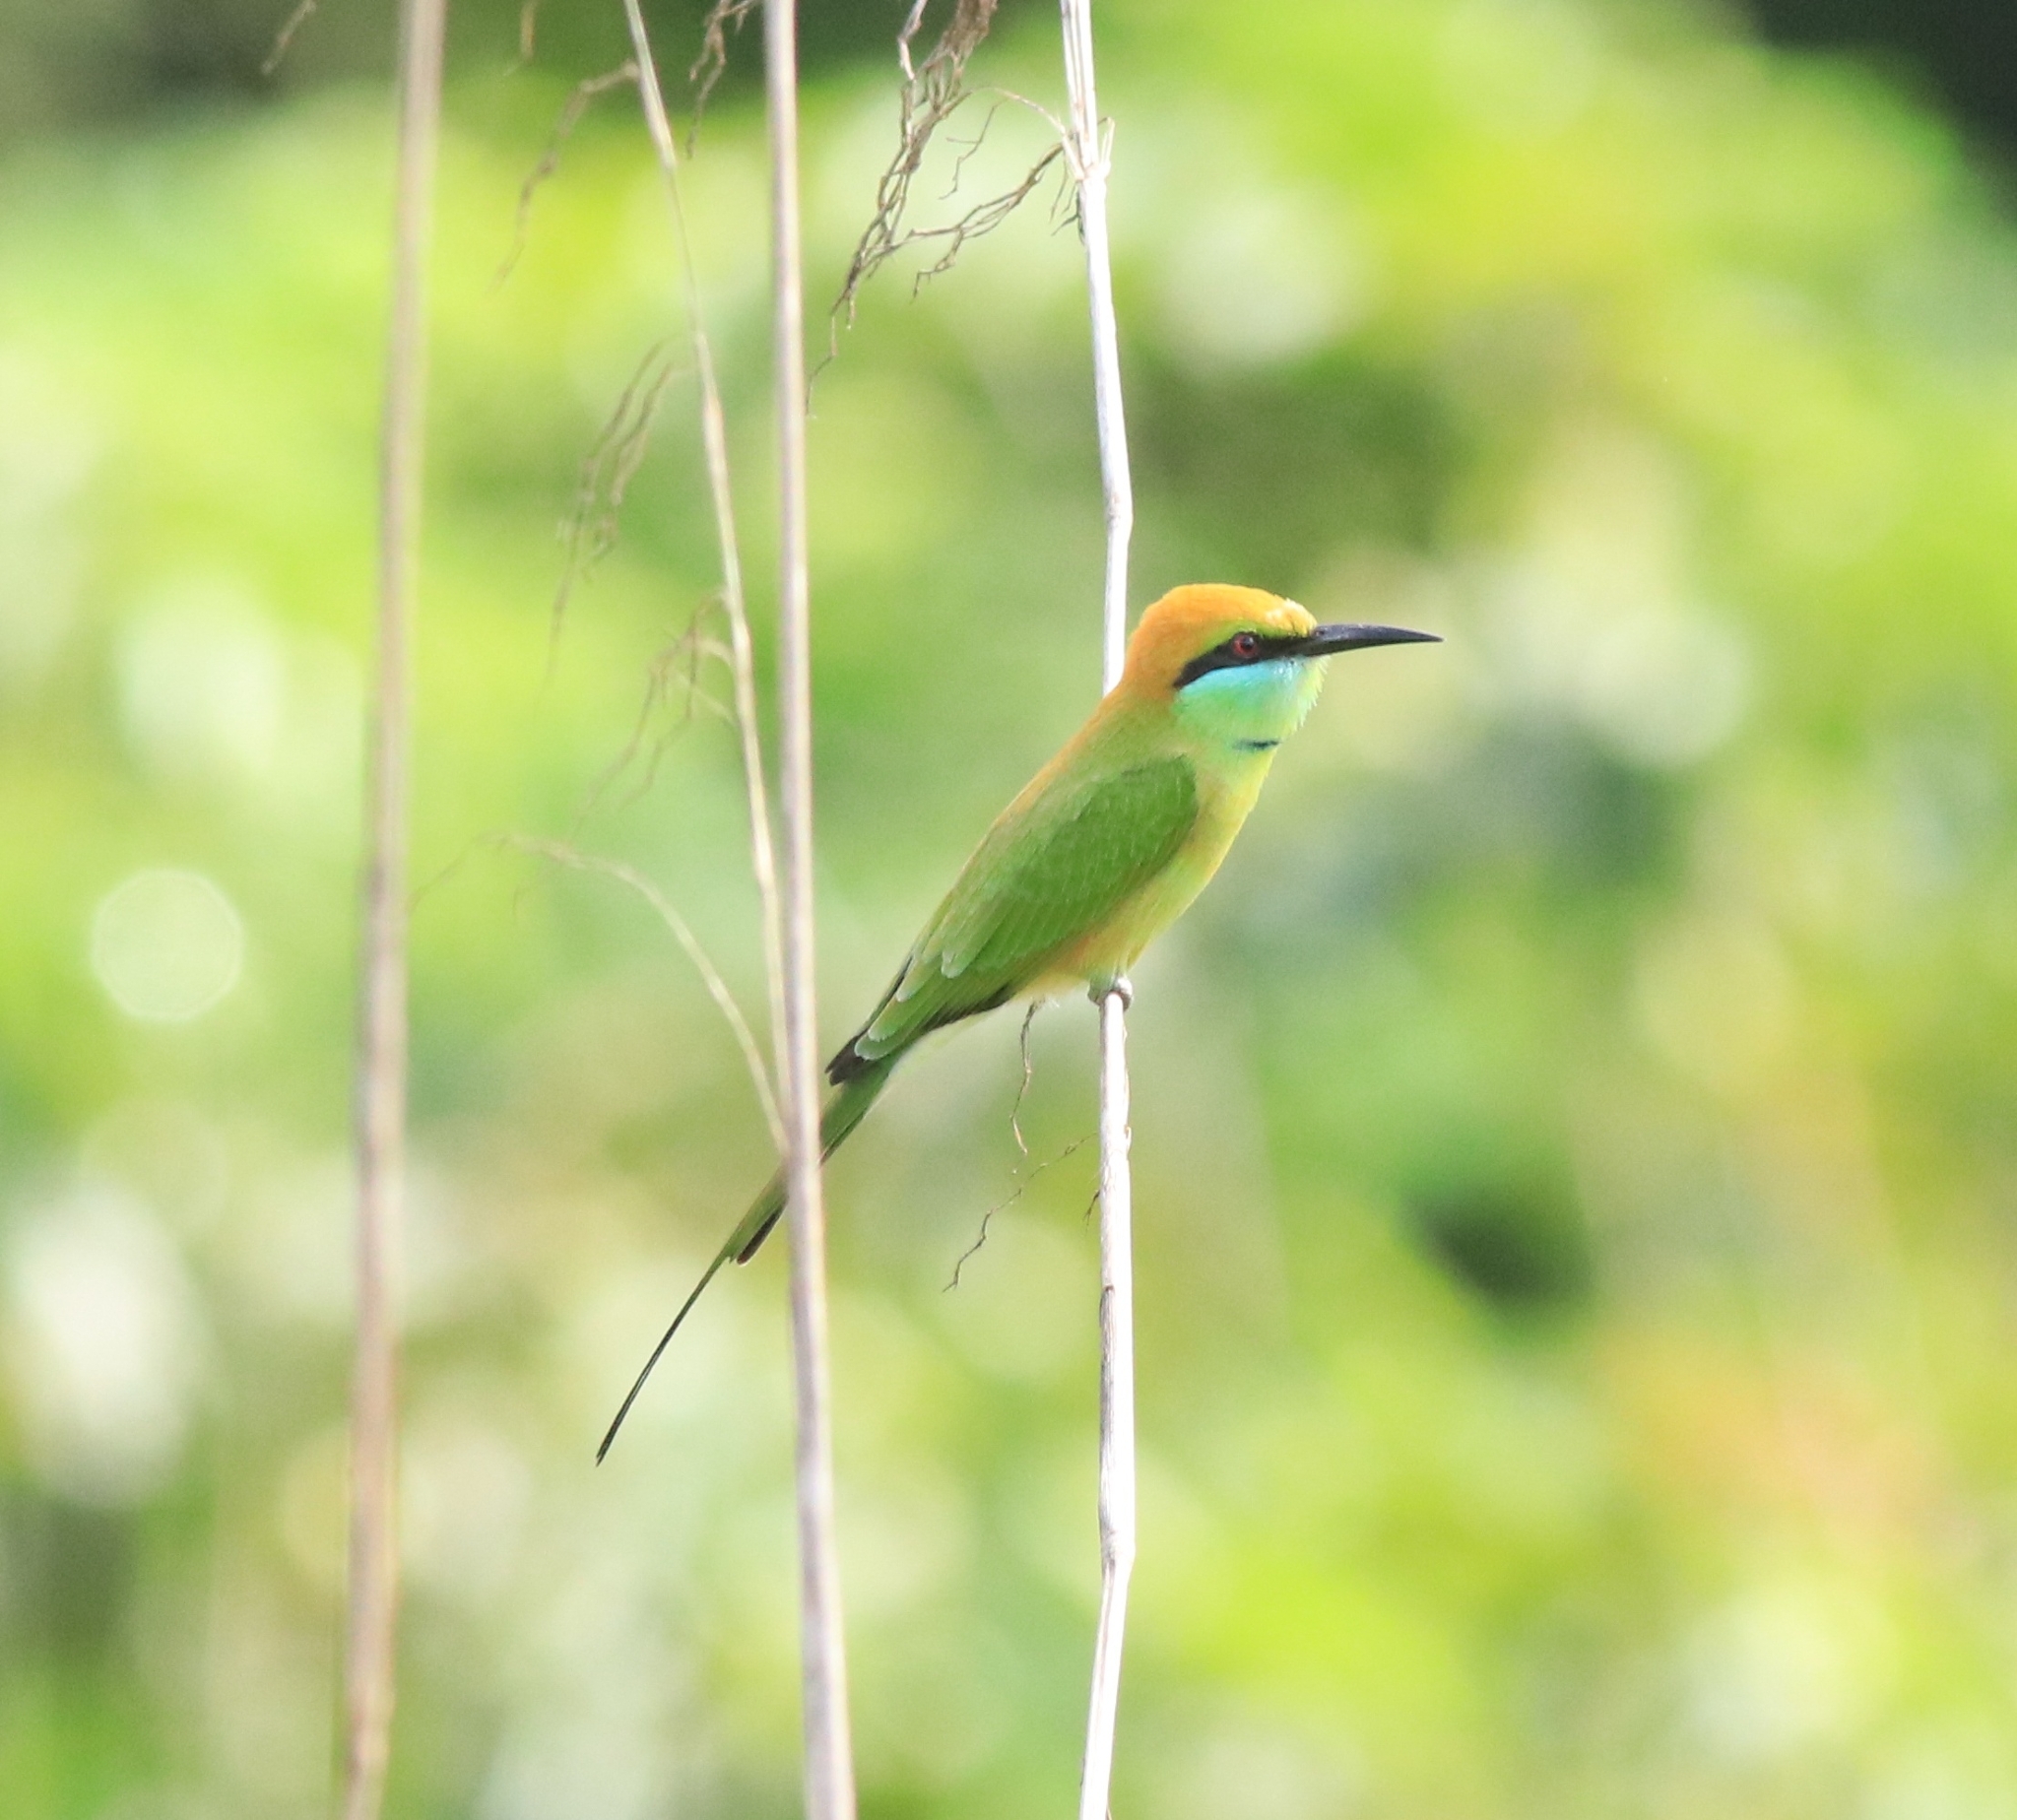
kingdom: Animalia
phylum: Chordata
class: Aves
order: Coraciiformes
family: Meropidae
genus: Merops
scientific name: Merops orientalis
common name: Green bee-eater
